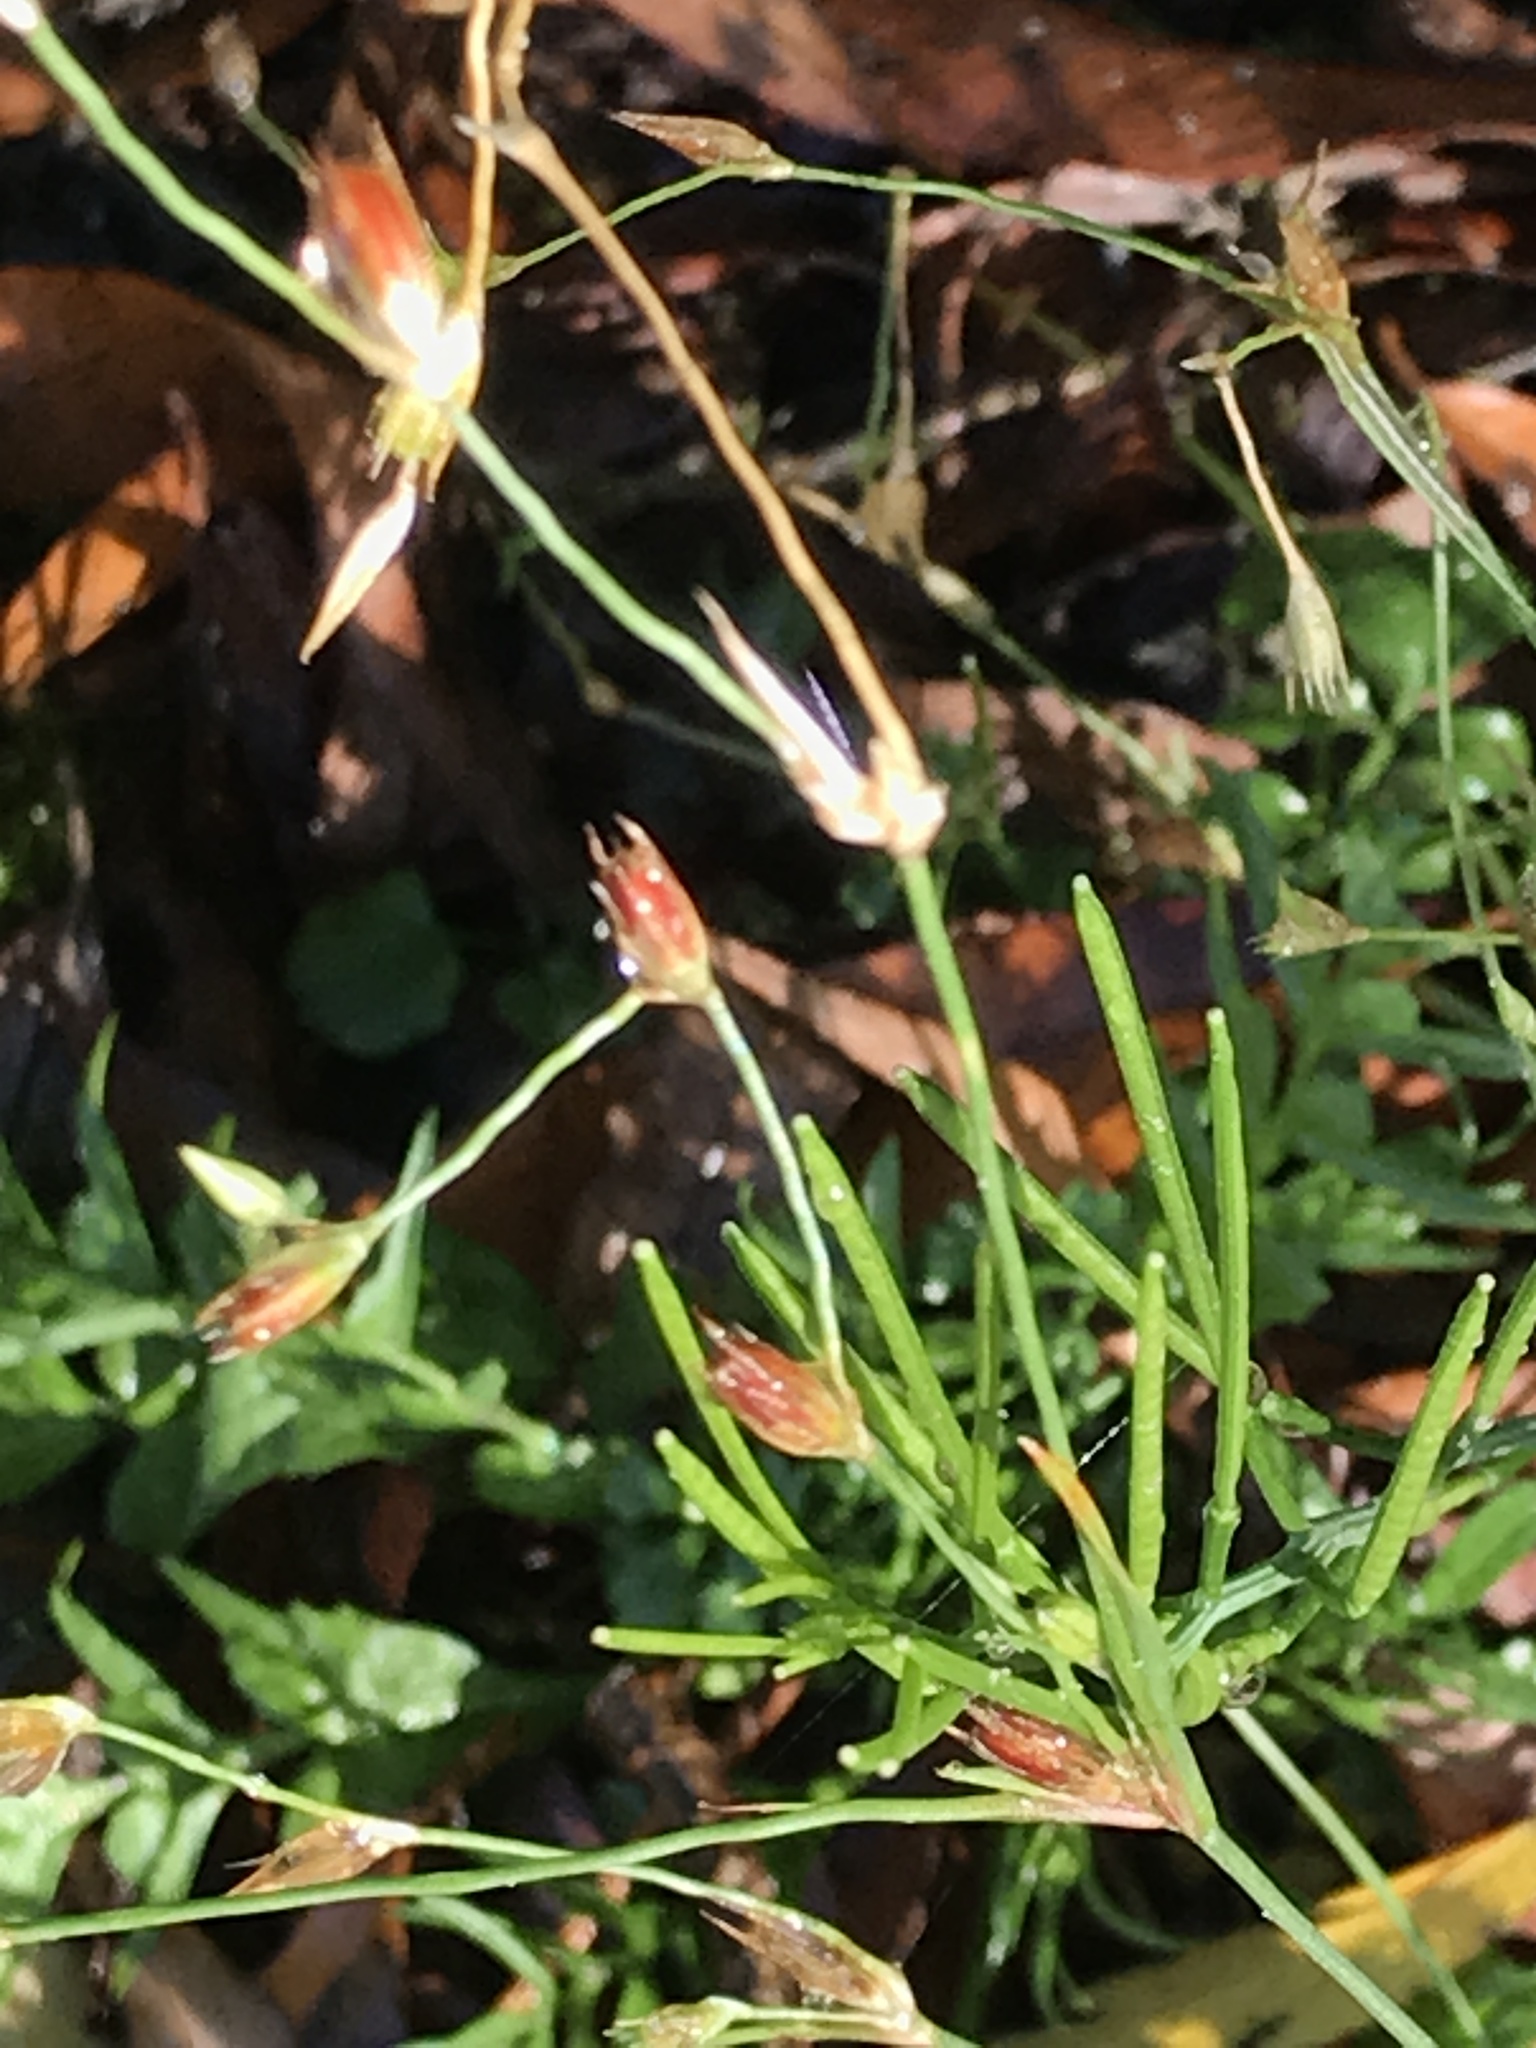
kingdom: Plantae
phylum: Tracheophyta
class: Liliopsida
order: Poales
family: Juncaceae
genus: Juncus
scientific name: Juncus bufonius
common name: Toad rush
